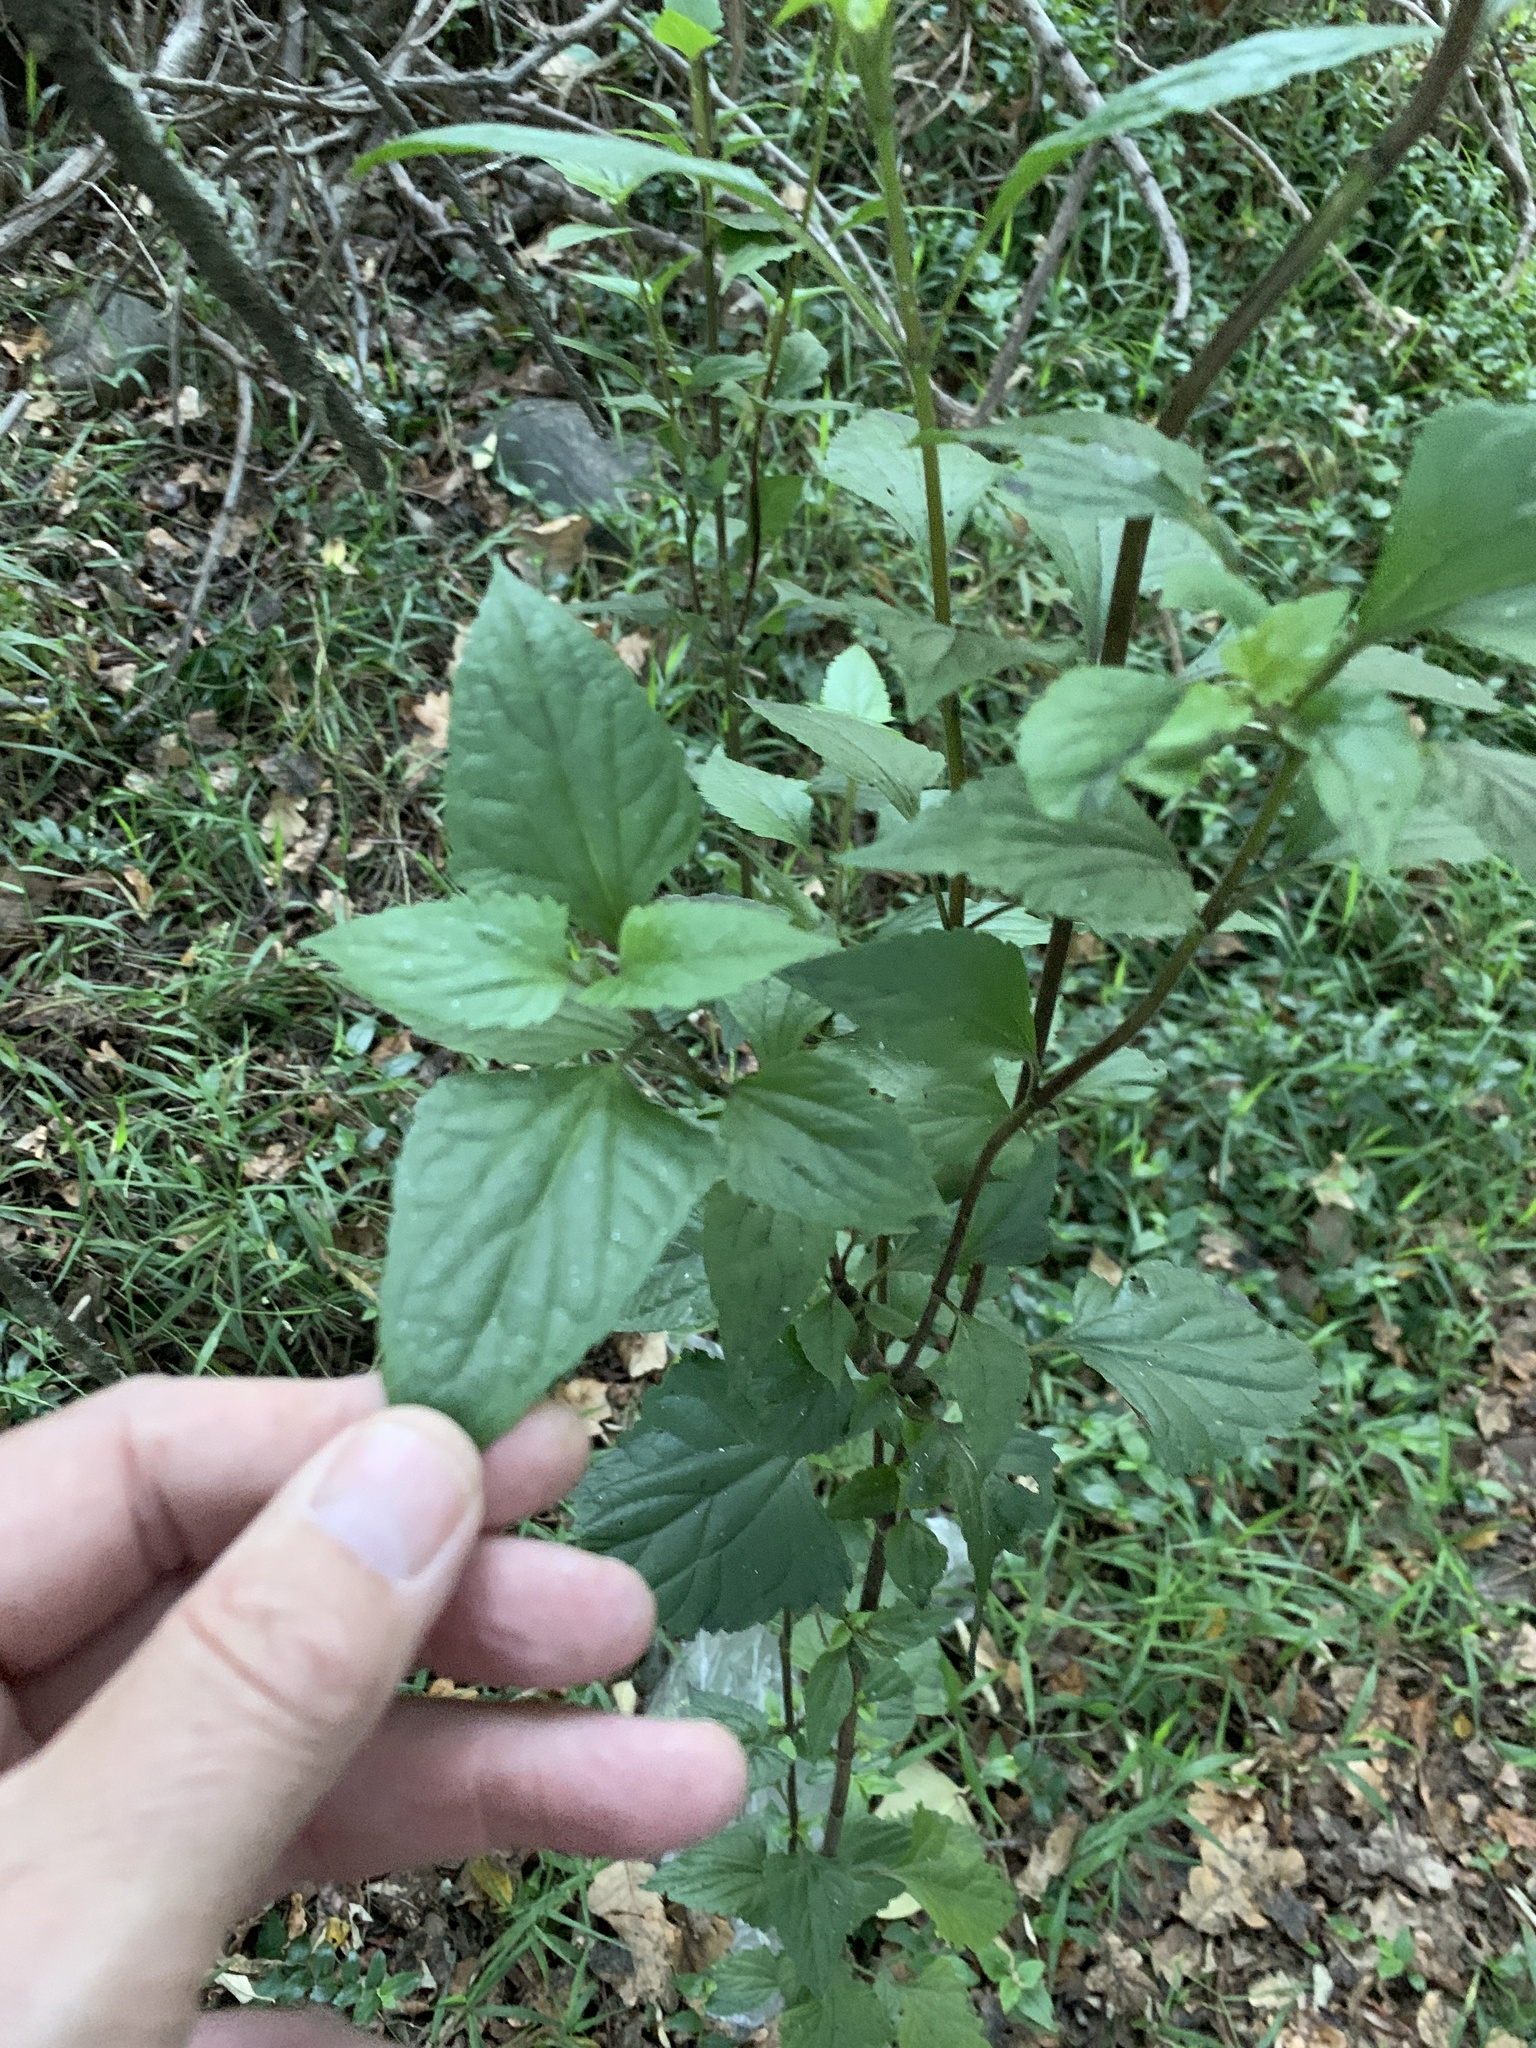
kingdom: Plantae
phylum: Tracheophyta
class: Magnoliopsida
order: Asterales
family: Asteraceae
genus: Ageratina
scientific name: Ageratina adenophora
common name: Sticky snakeroot
